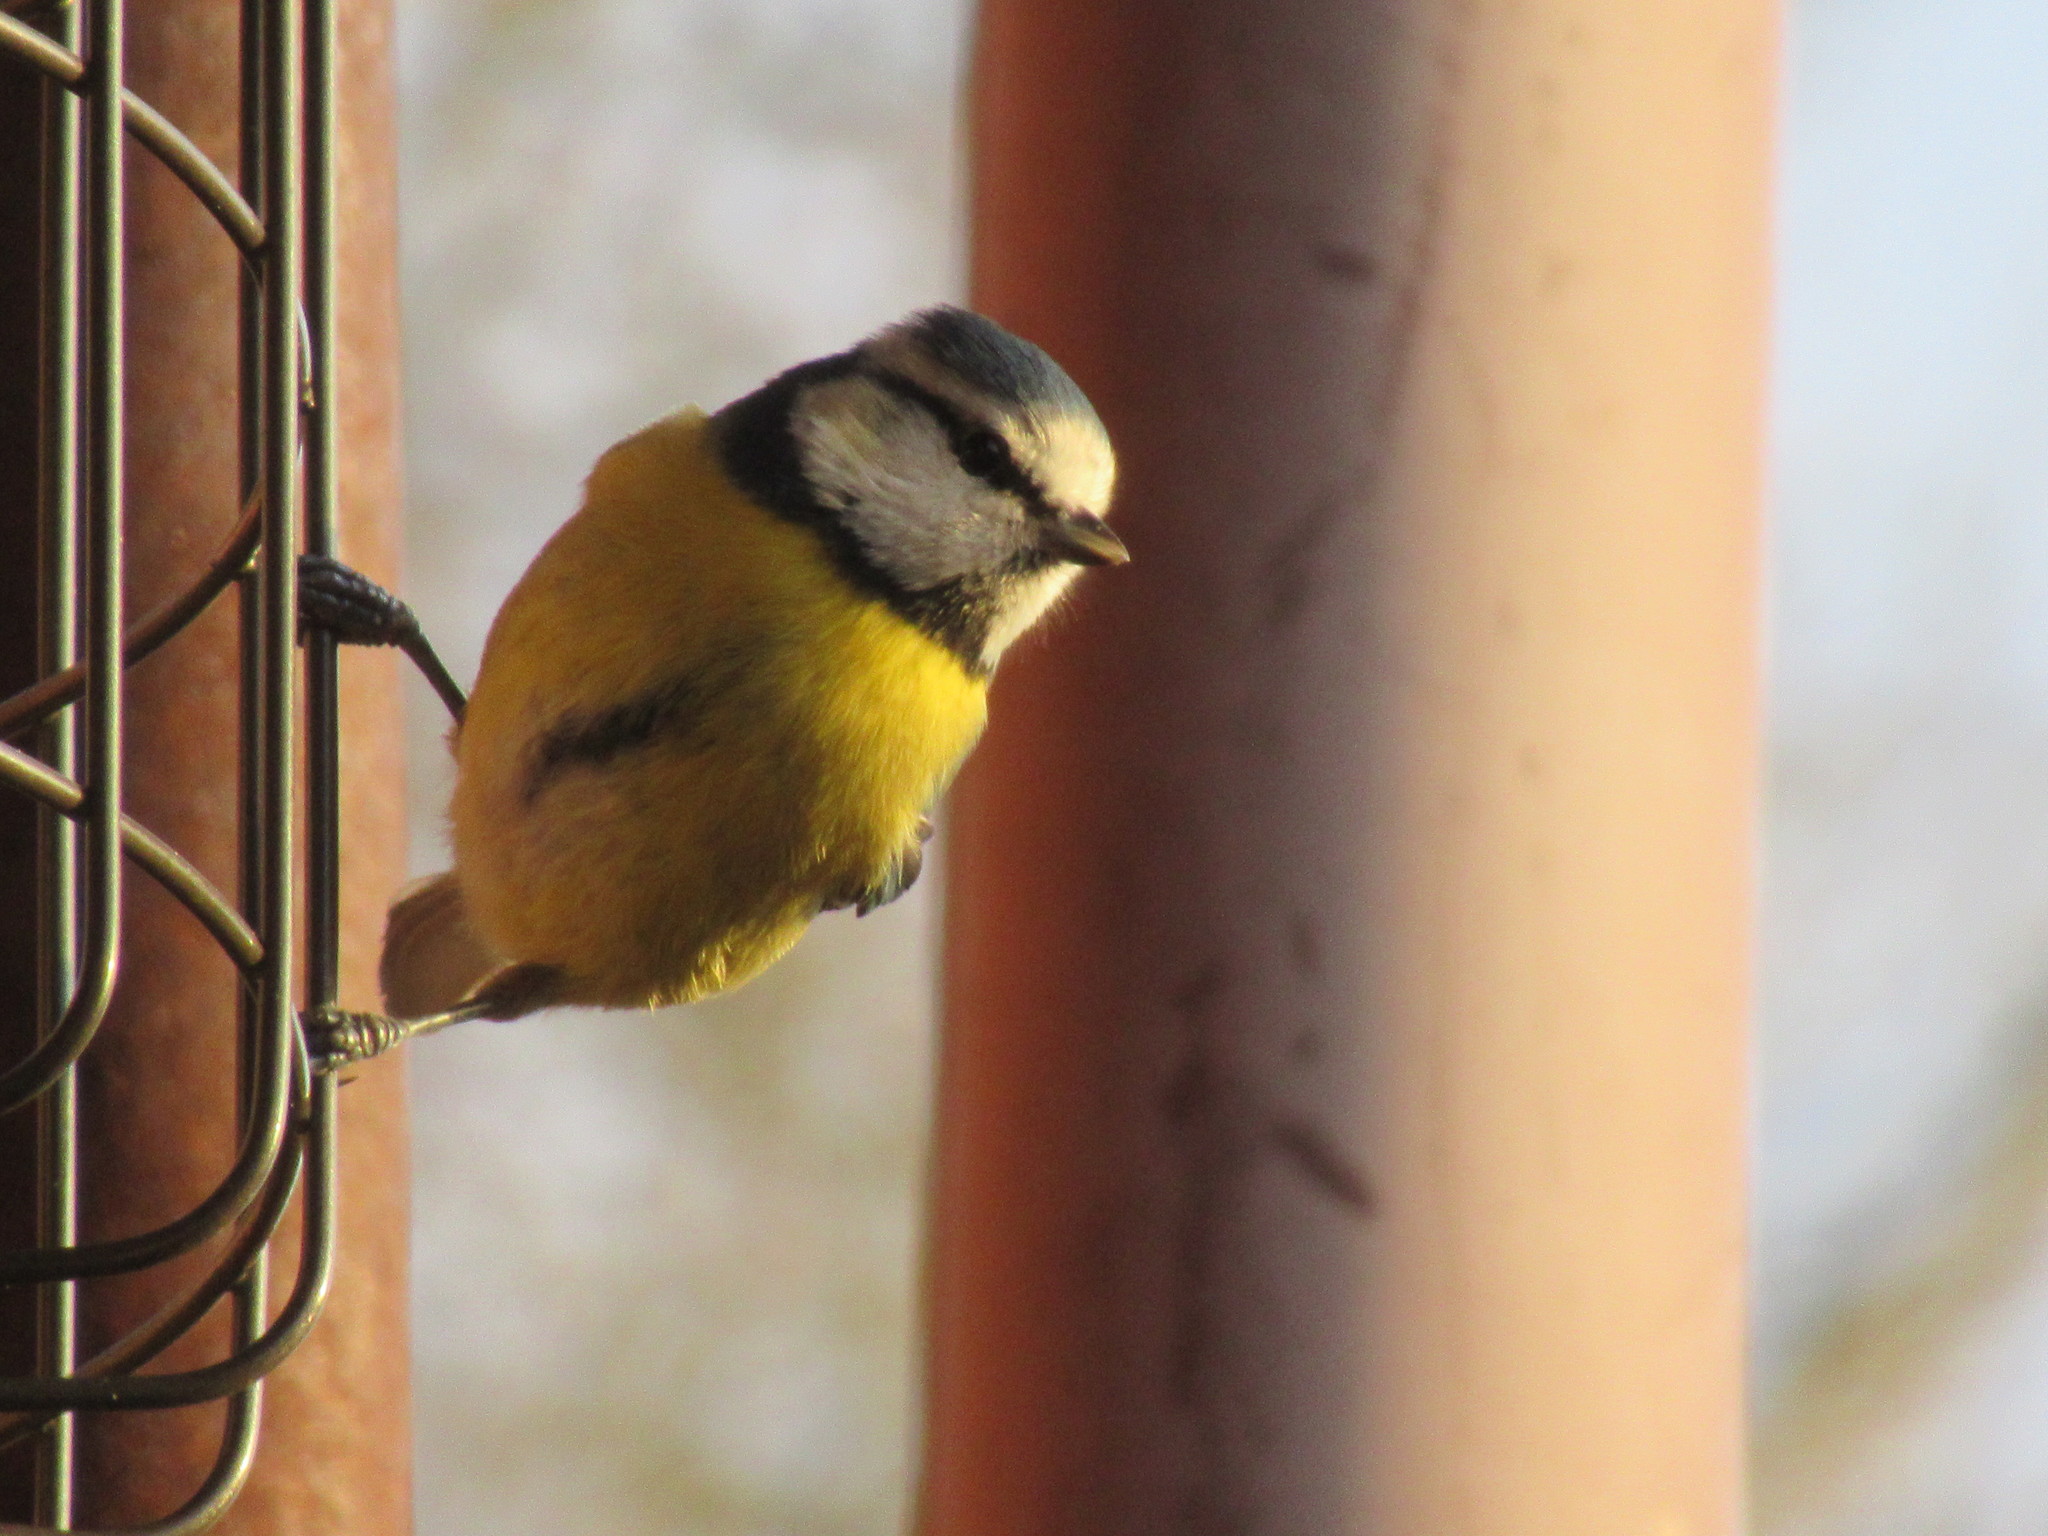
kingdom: Animalia
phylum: Chordata
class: Aves
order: Passeriformes
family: Paridae
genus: Cyanistes
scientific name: Cyanistes caeruleus
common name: Eurasian blue tit
